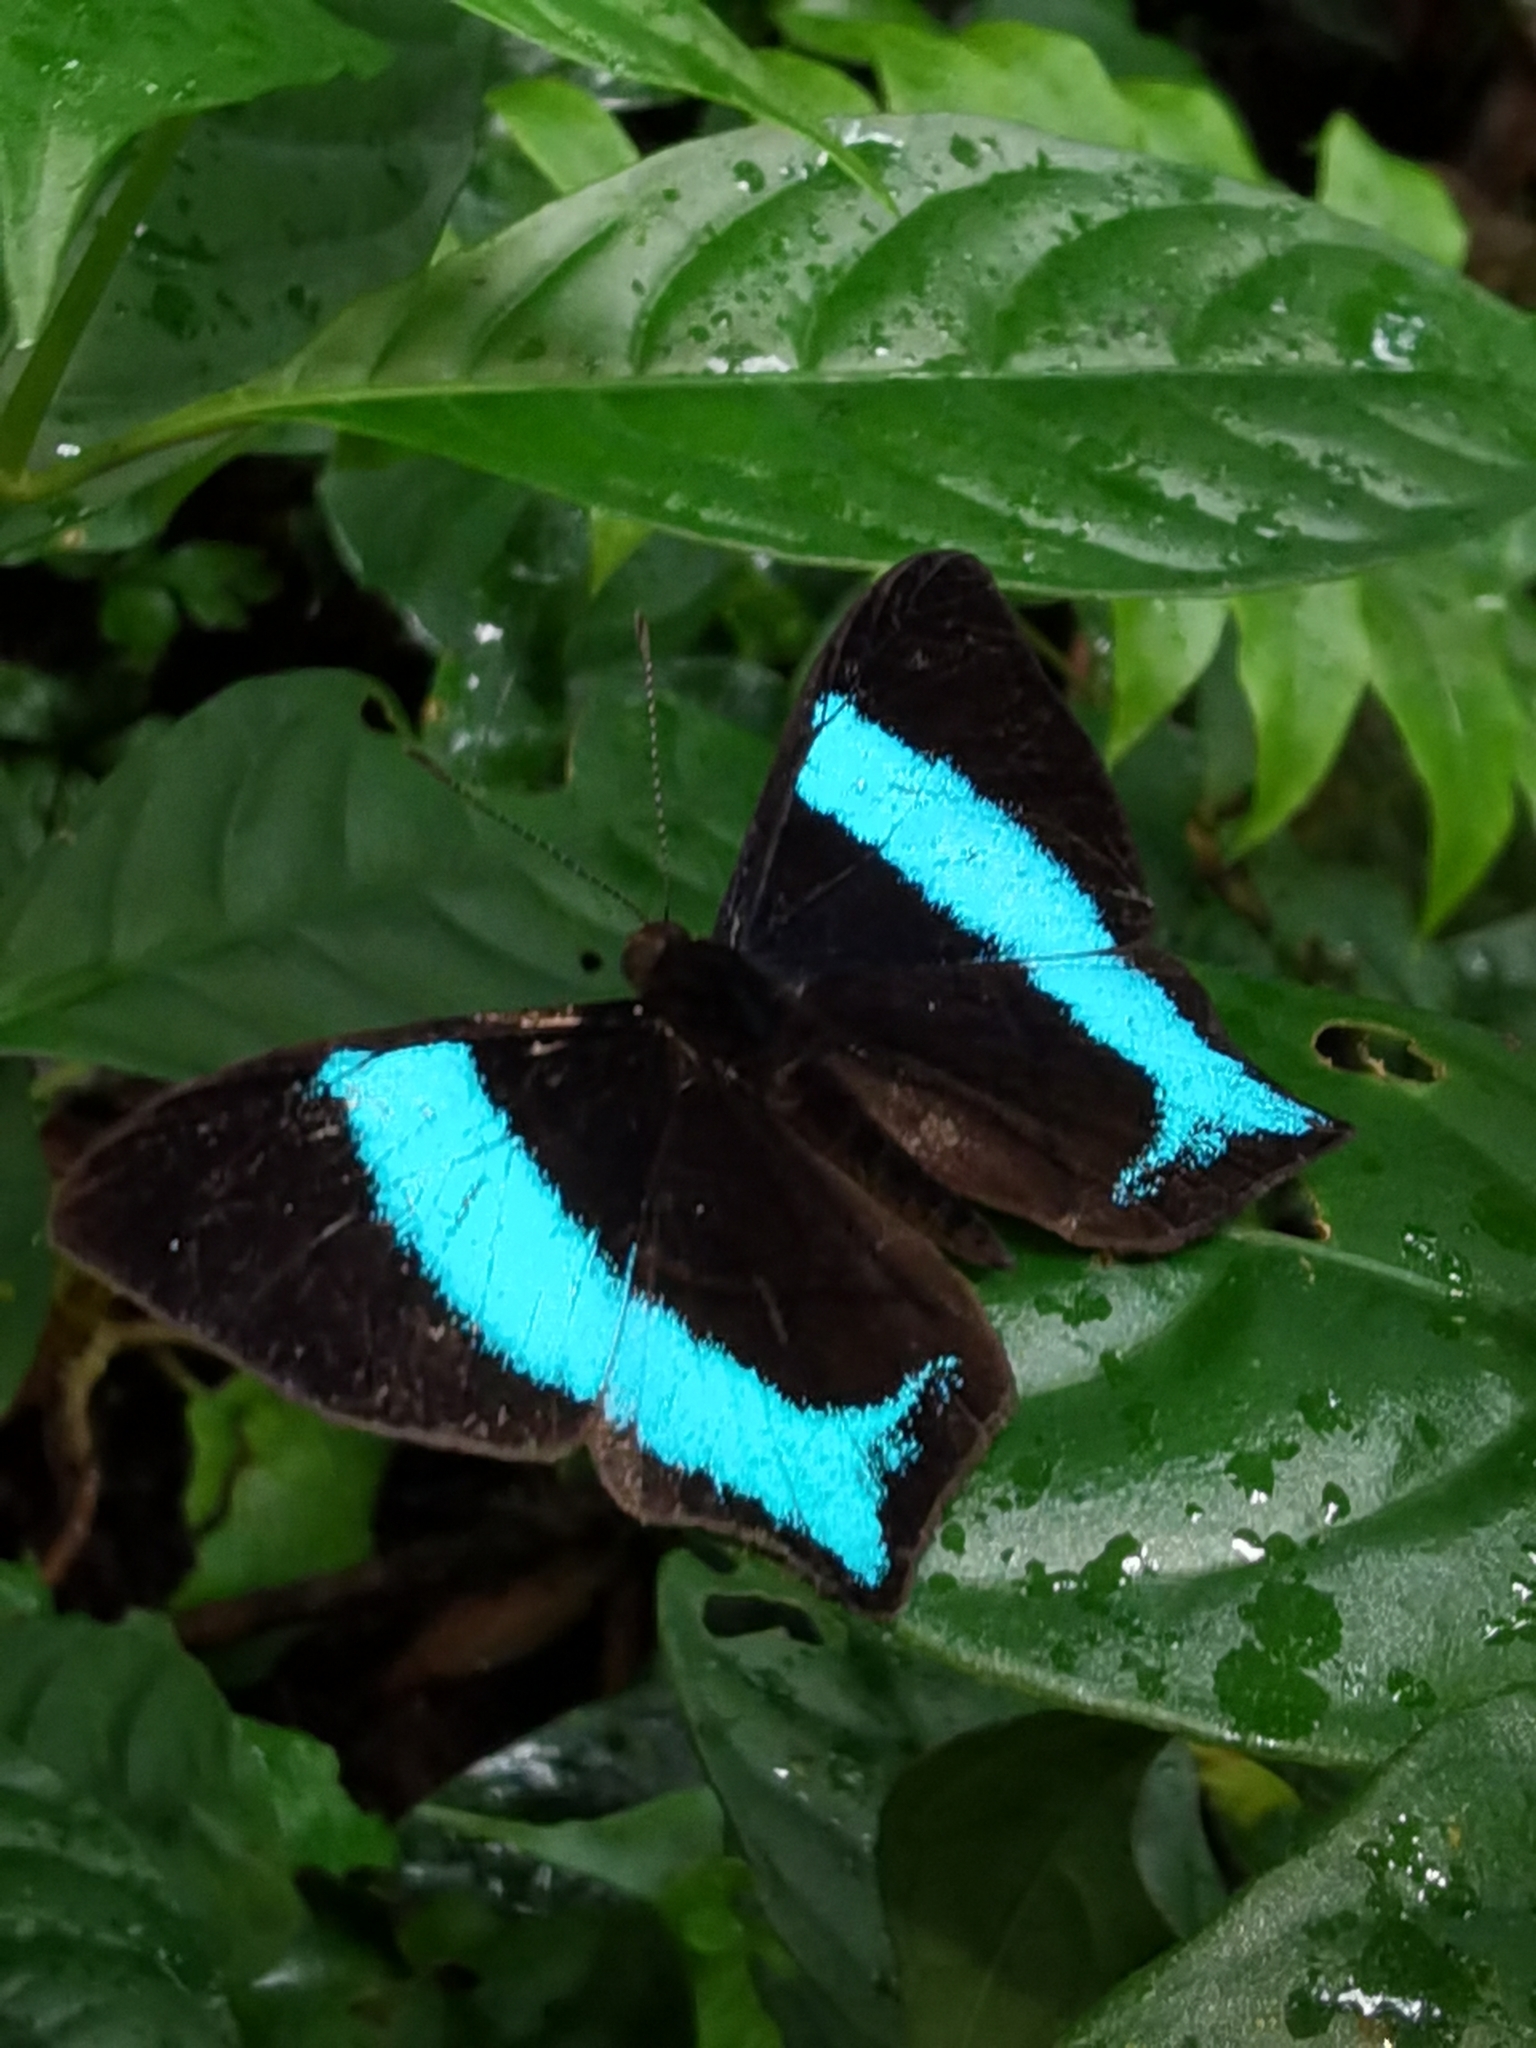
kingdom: Animalia
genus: Mesosemia
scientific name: Mesosemia grandis
